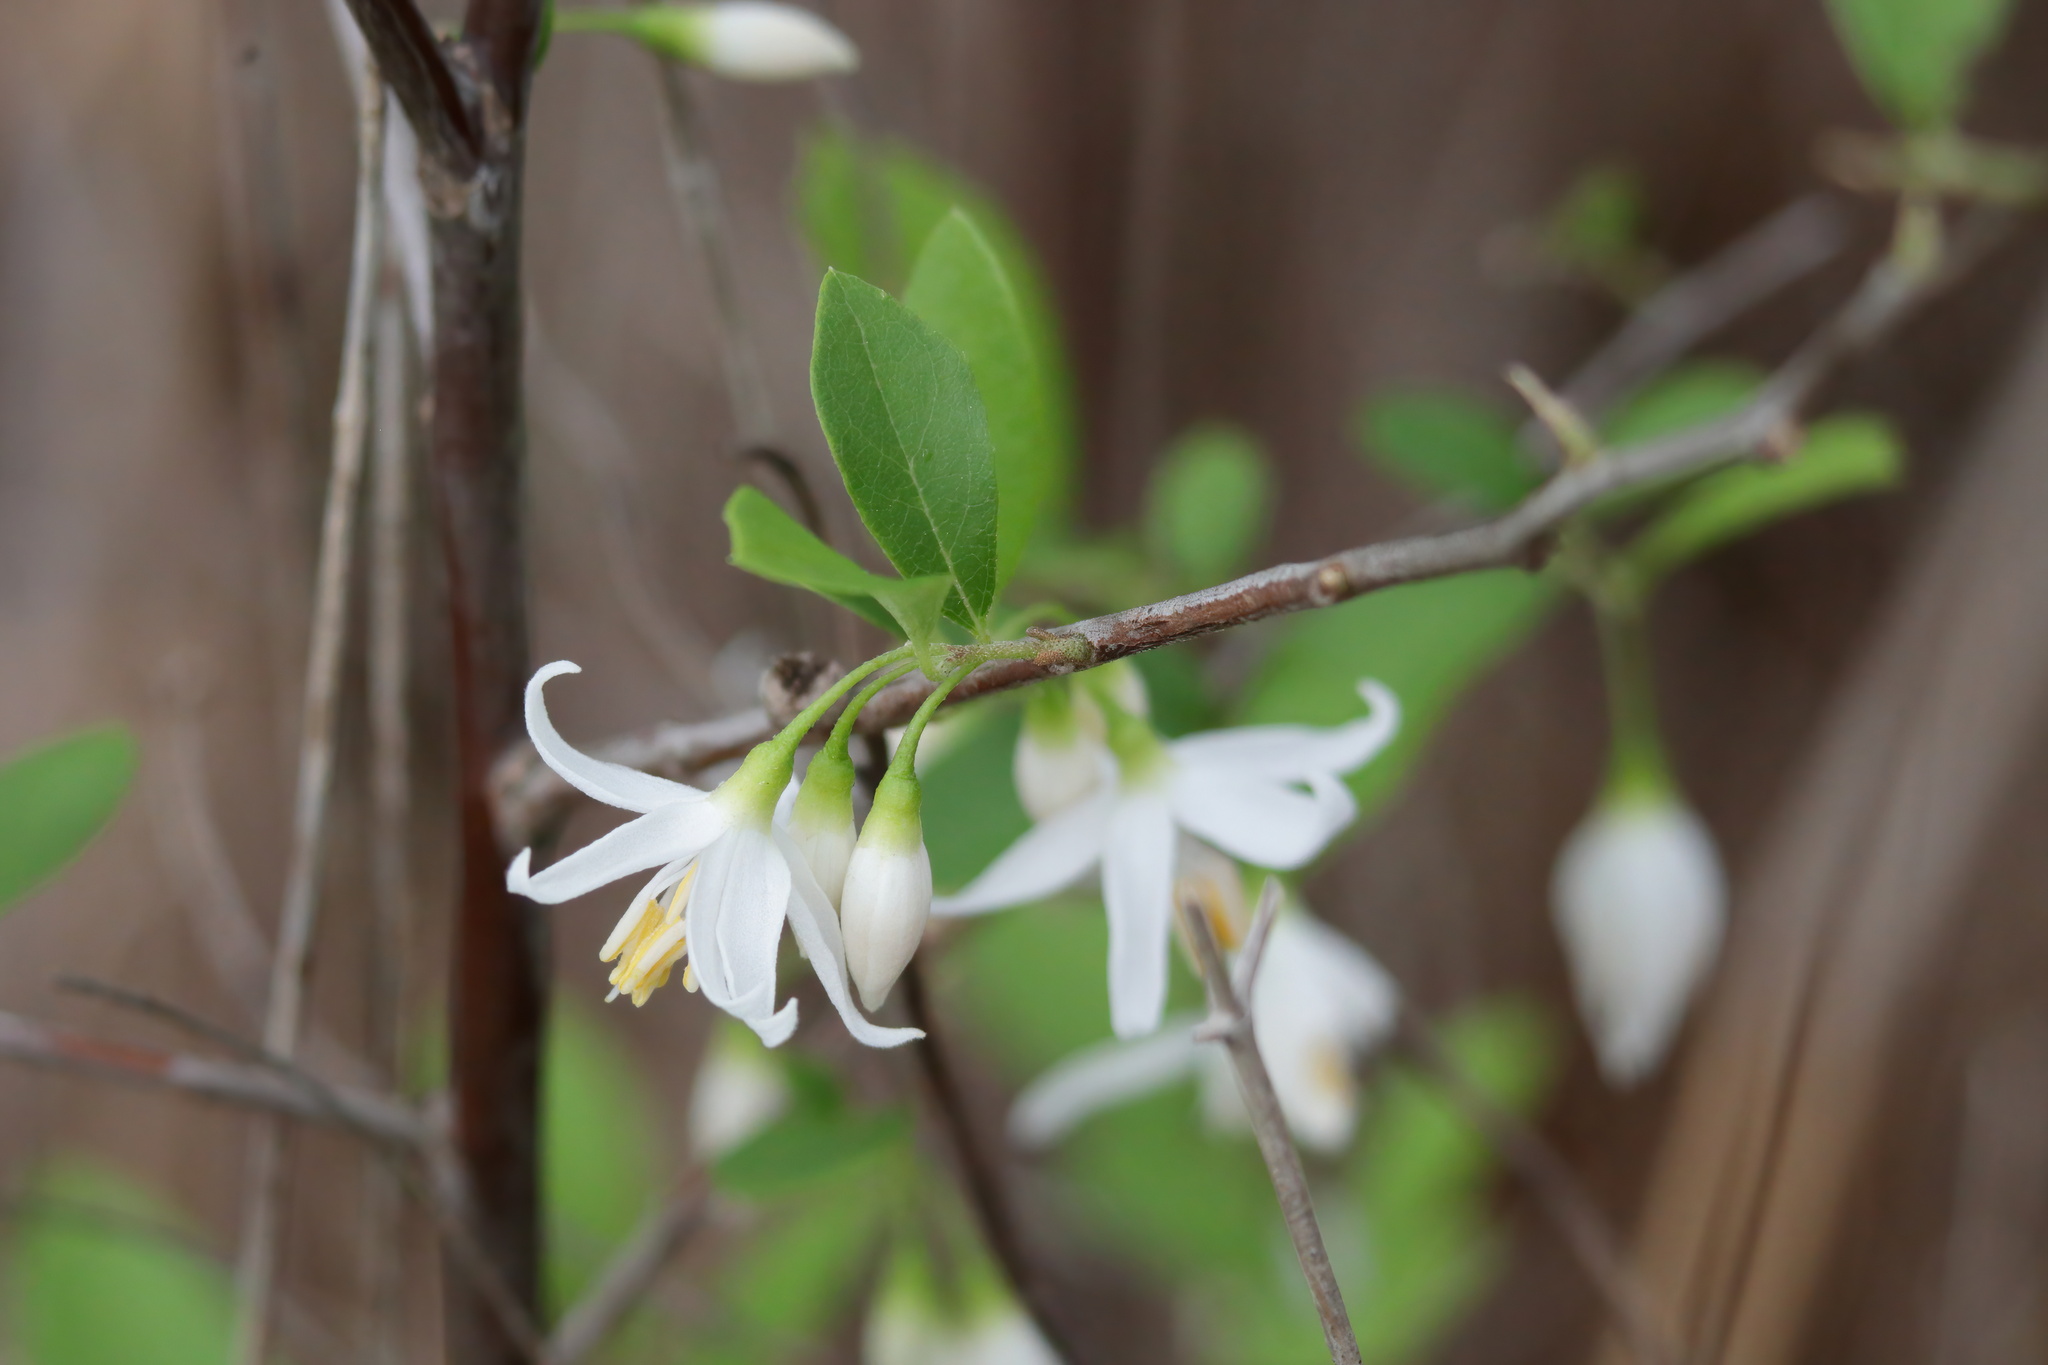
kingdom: Plantae
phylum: Tracheophyta
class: Magnoliopsida
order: Ericales
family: Styracaceae
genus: Styrax
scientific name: Styrax americanus
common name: American snowbell
